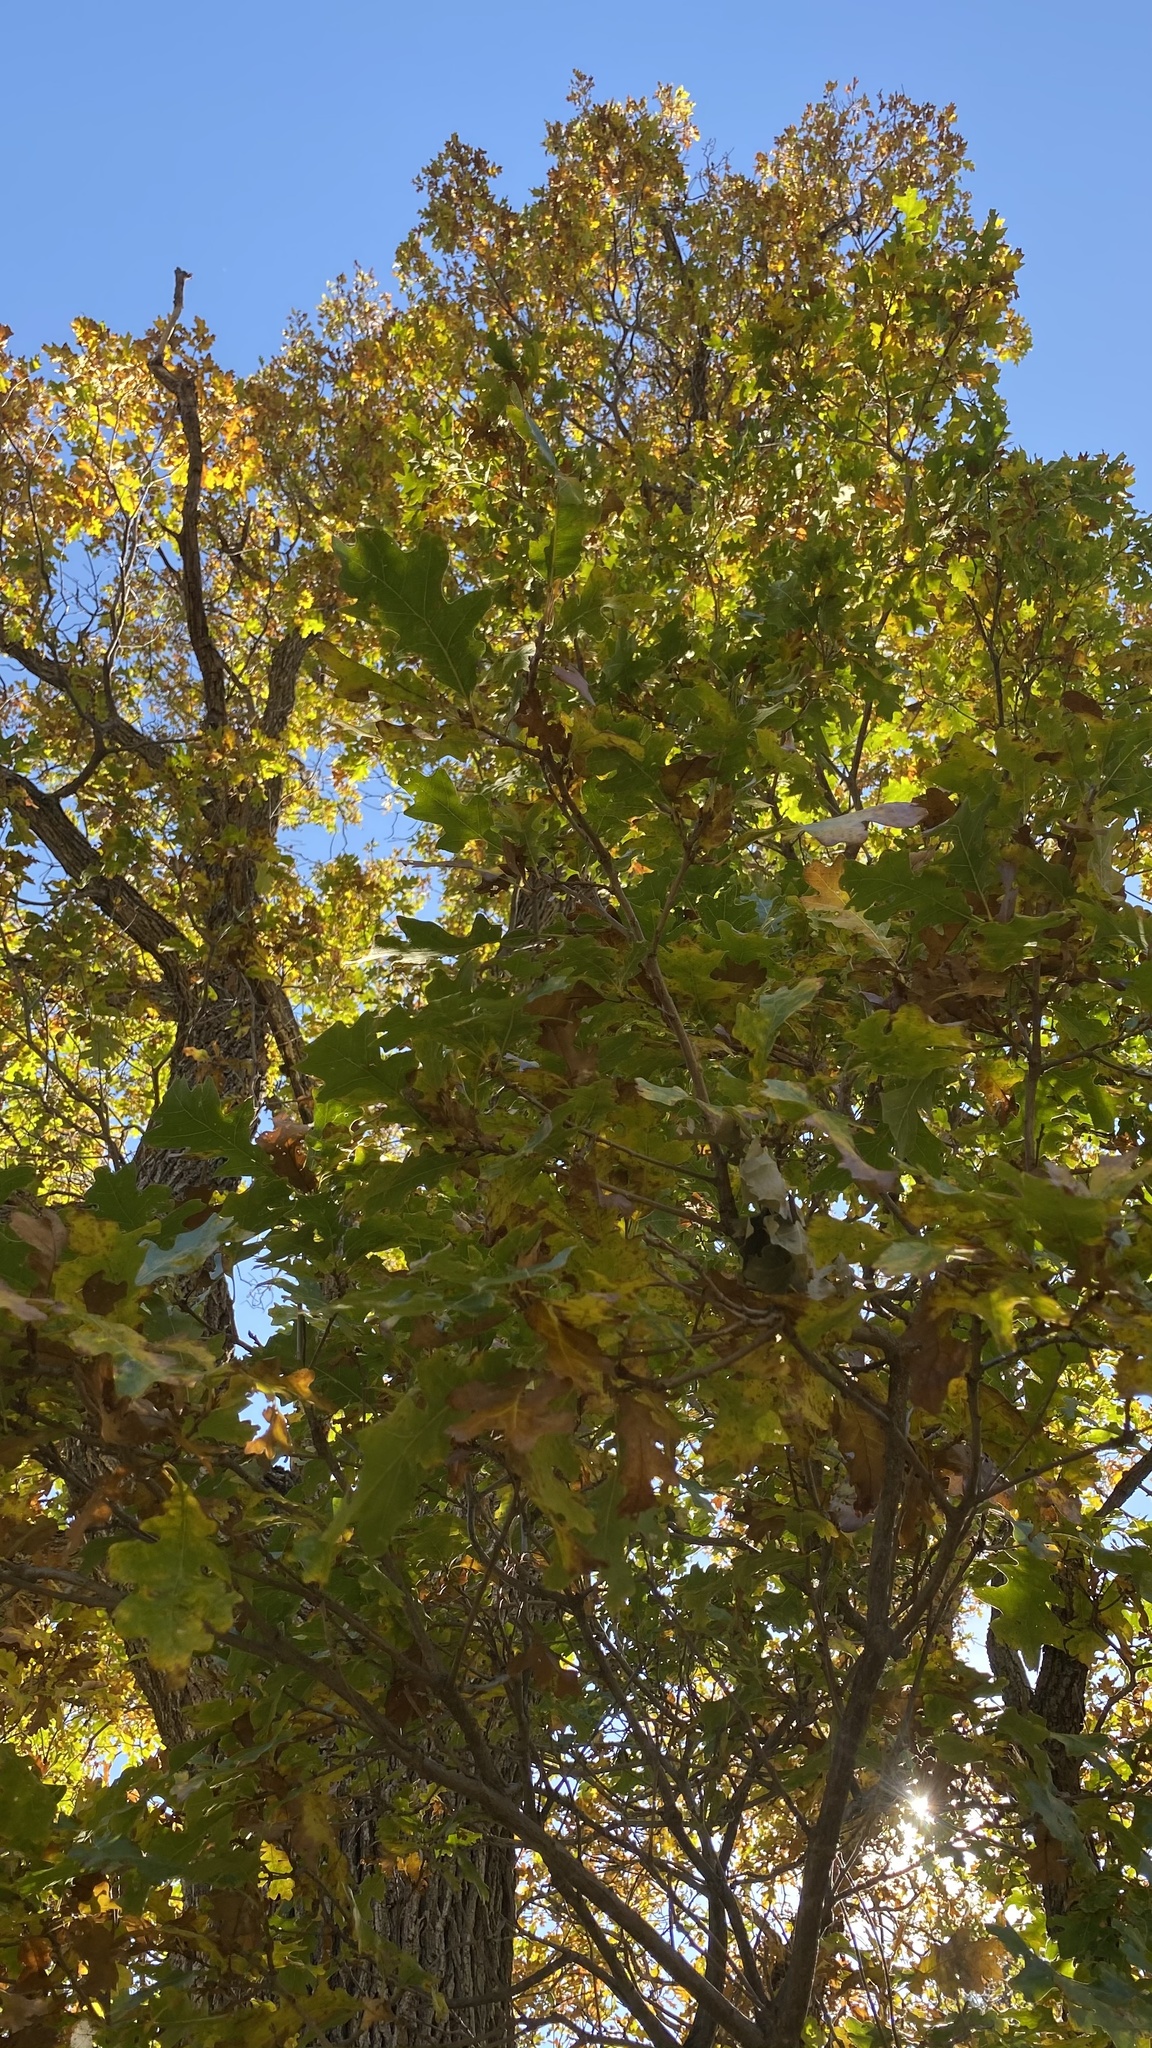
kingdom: Plantae
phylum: Tracheophyta
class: Magnoliopsida
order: Fagales
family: Fagaceae
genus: Quercus
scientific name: Quercus gambelii
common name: Gambel oak
